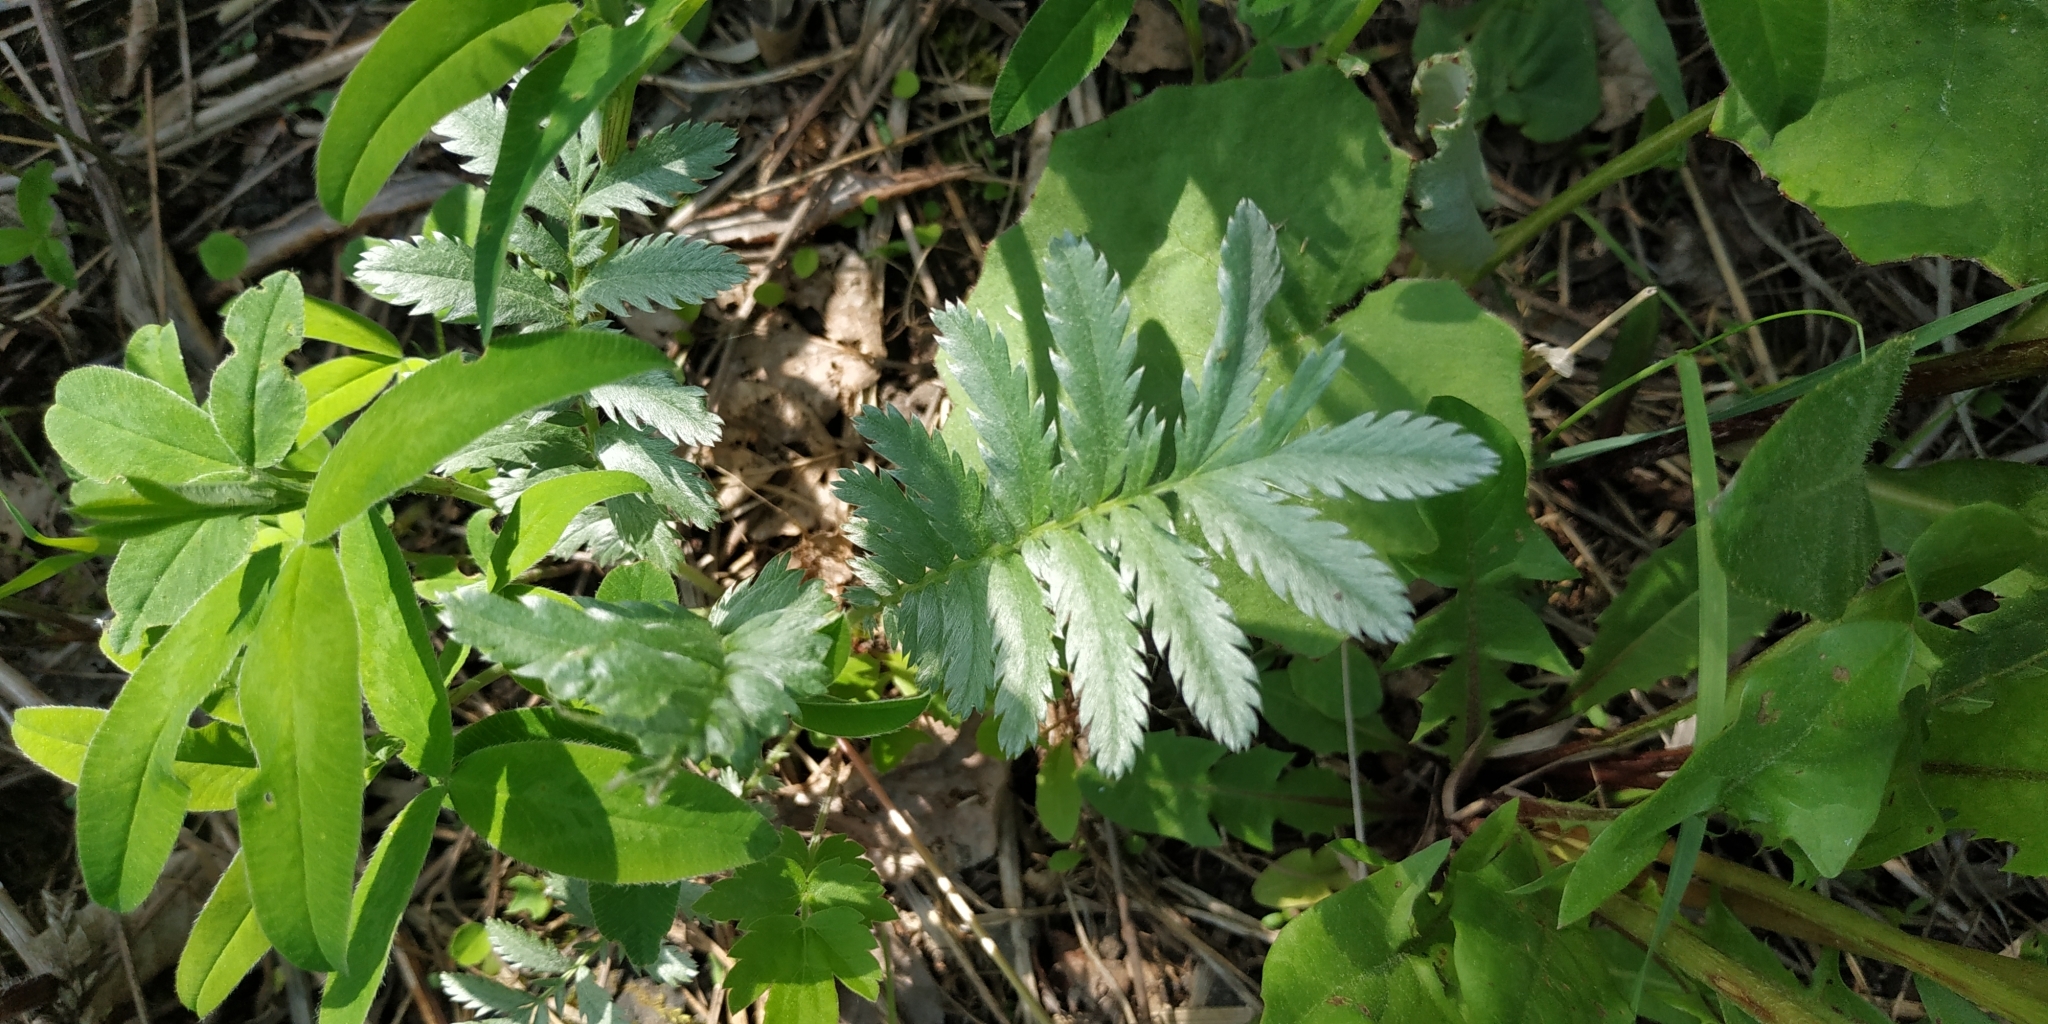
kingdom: Plantae
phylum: Tracheophyta
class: Magnoliopsida
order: Rosales
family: Rosaceae
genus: Argentina
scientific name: Argentina anserina
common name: Common silverweed
